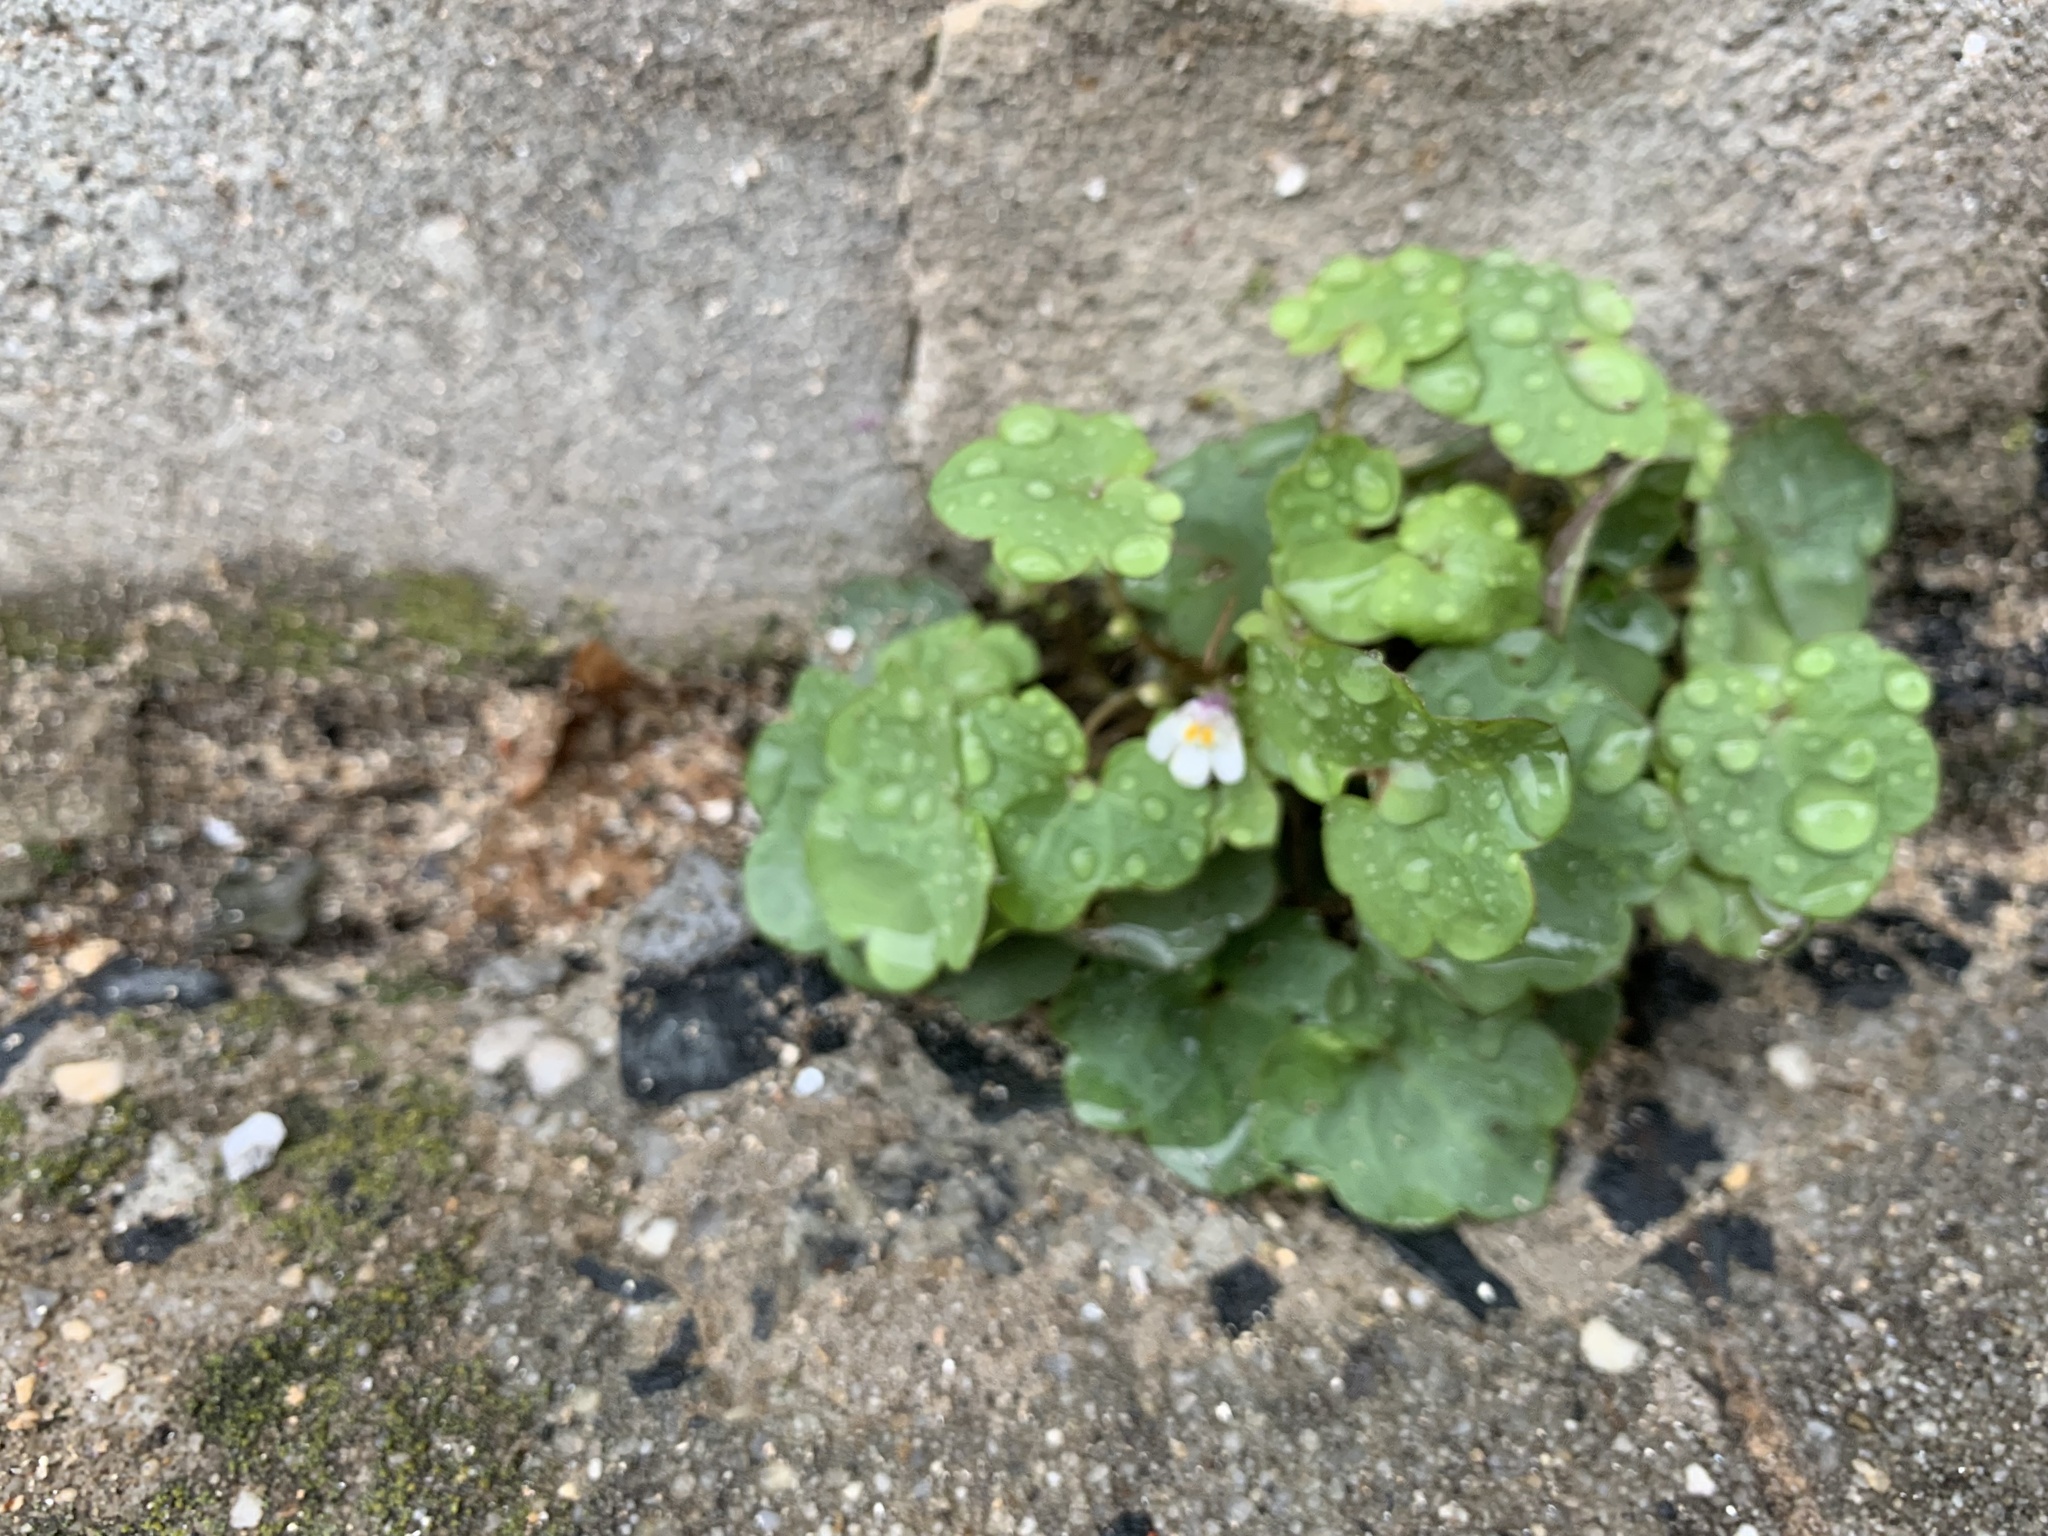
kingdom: Plantae
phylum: Tracheophyta
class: Magnoliopsida
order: Lamiales
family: Plantaginaceae
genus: Cymbalaria
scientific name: Cymbalaria muralis
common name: Ivy-leaved toadflax
